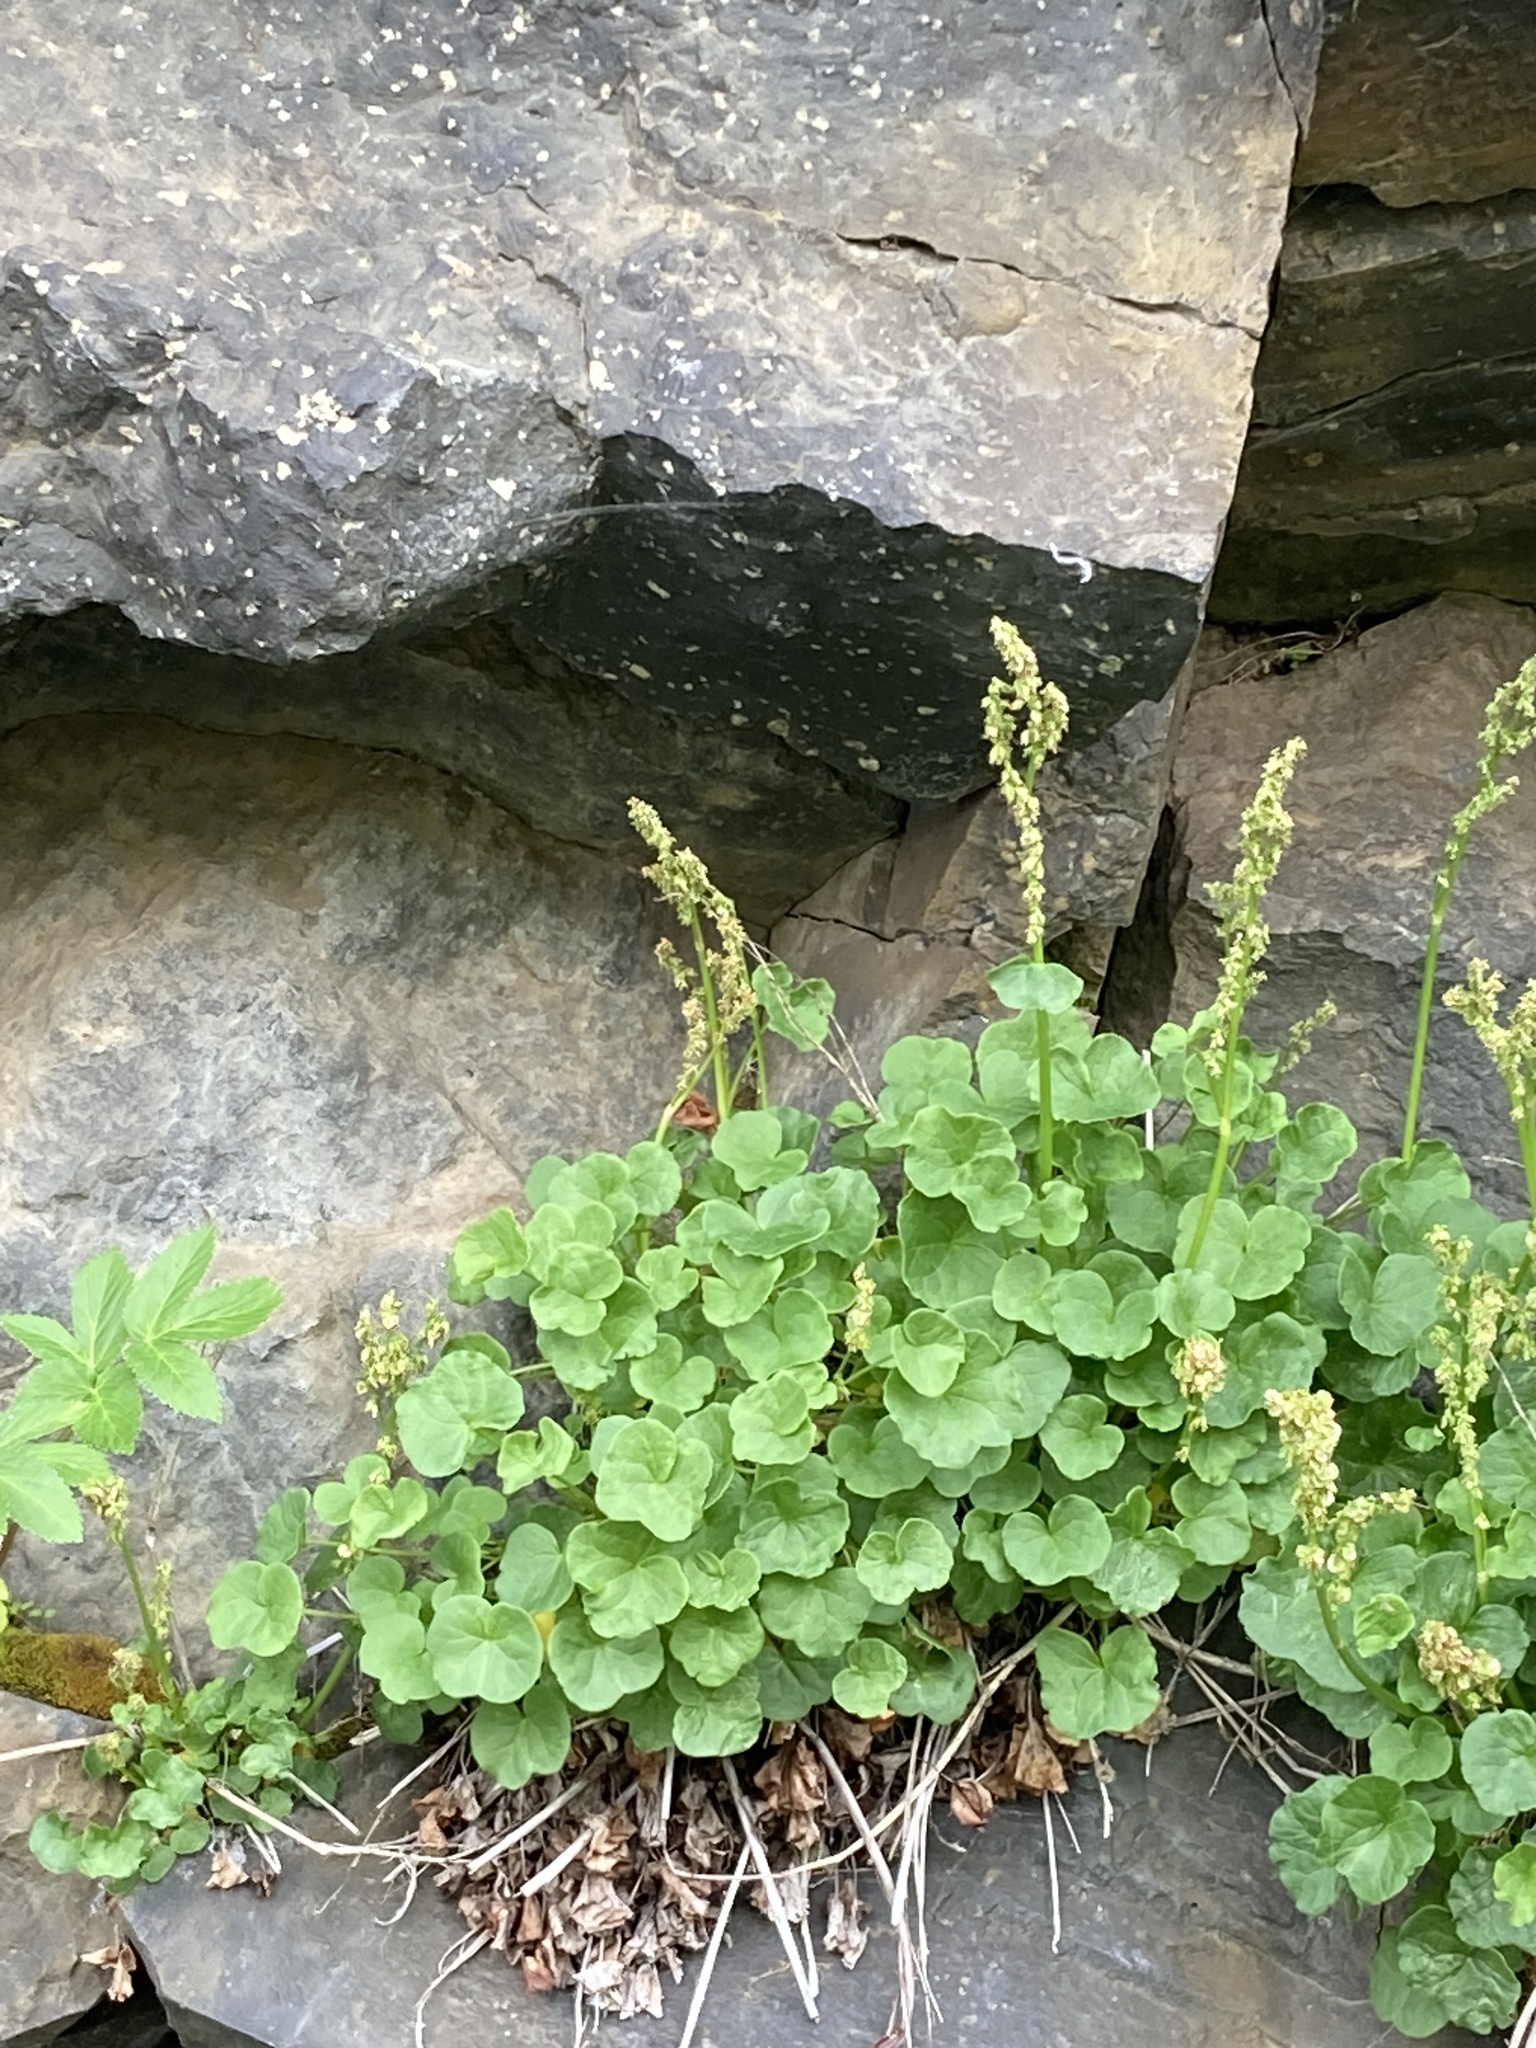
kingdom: Plantae
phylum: Tracheophyta
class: Magnoliopsida
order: Caryophyllales
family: Polygonaceae
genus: Oxyria
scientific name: Oxyria digyna
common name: Alpine mountain-sorrel
